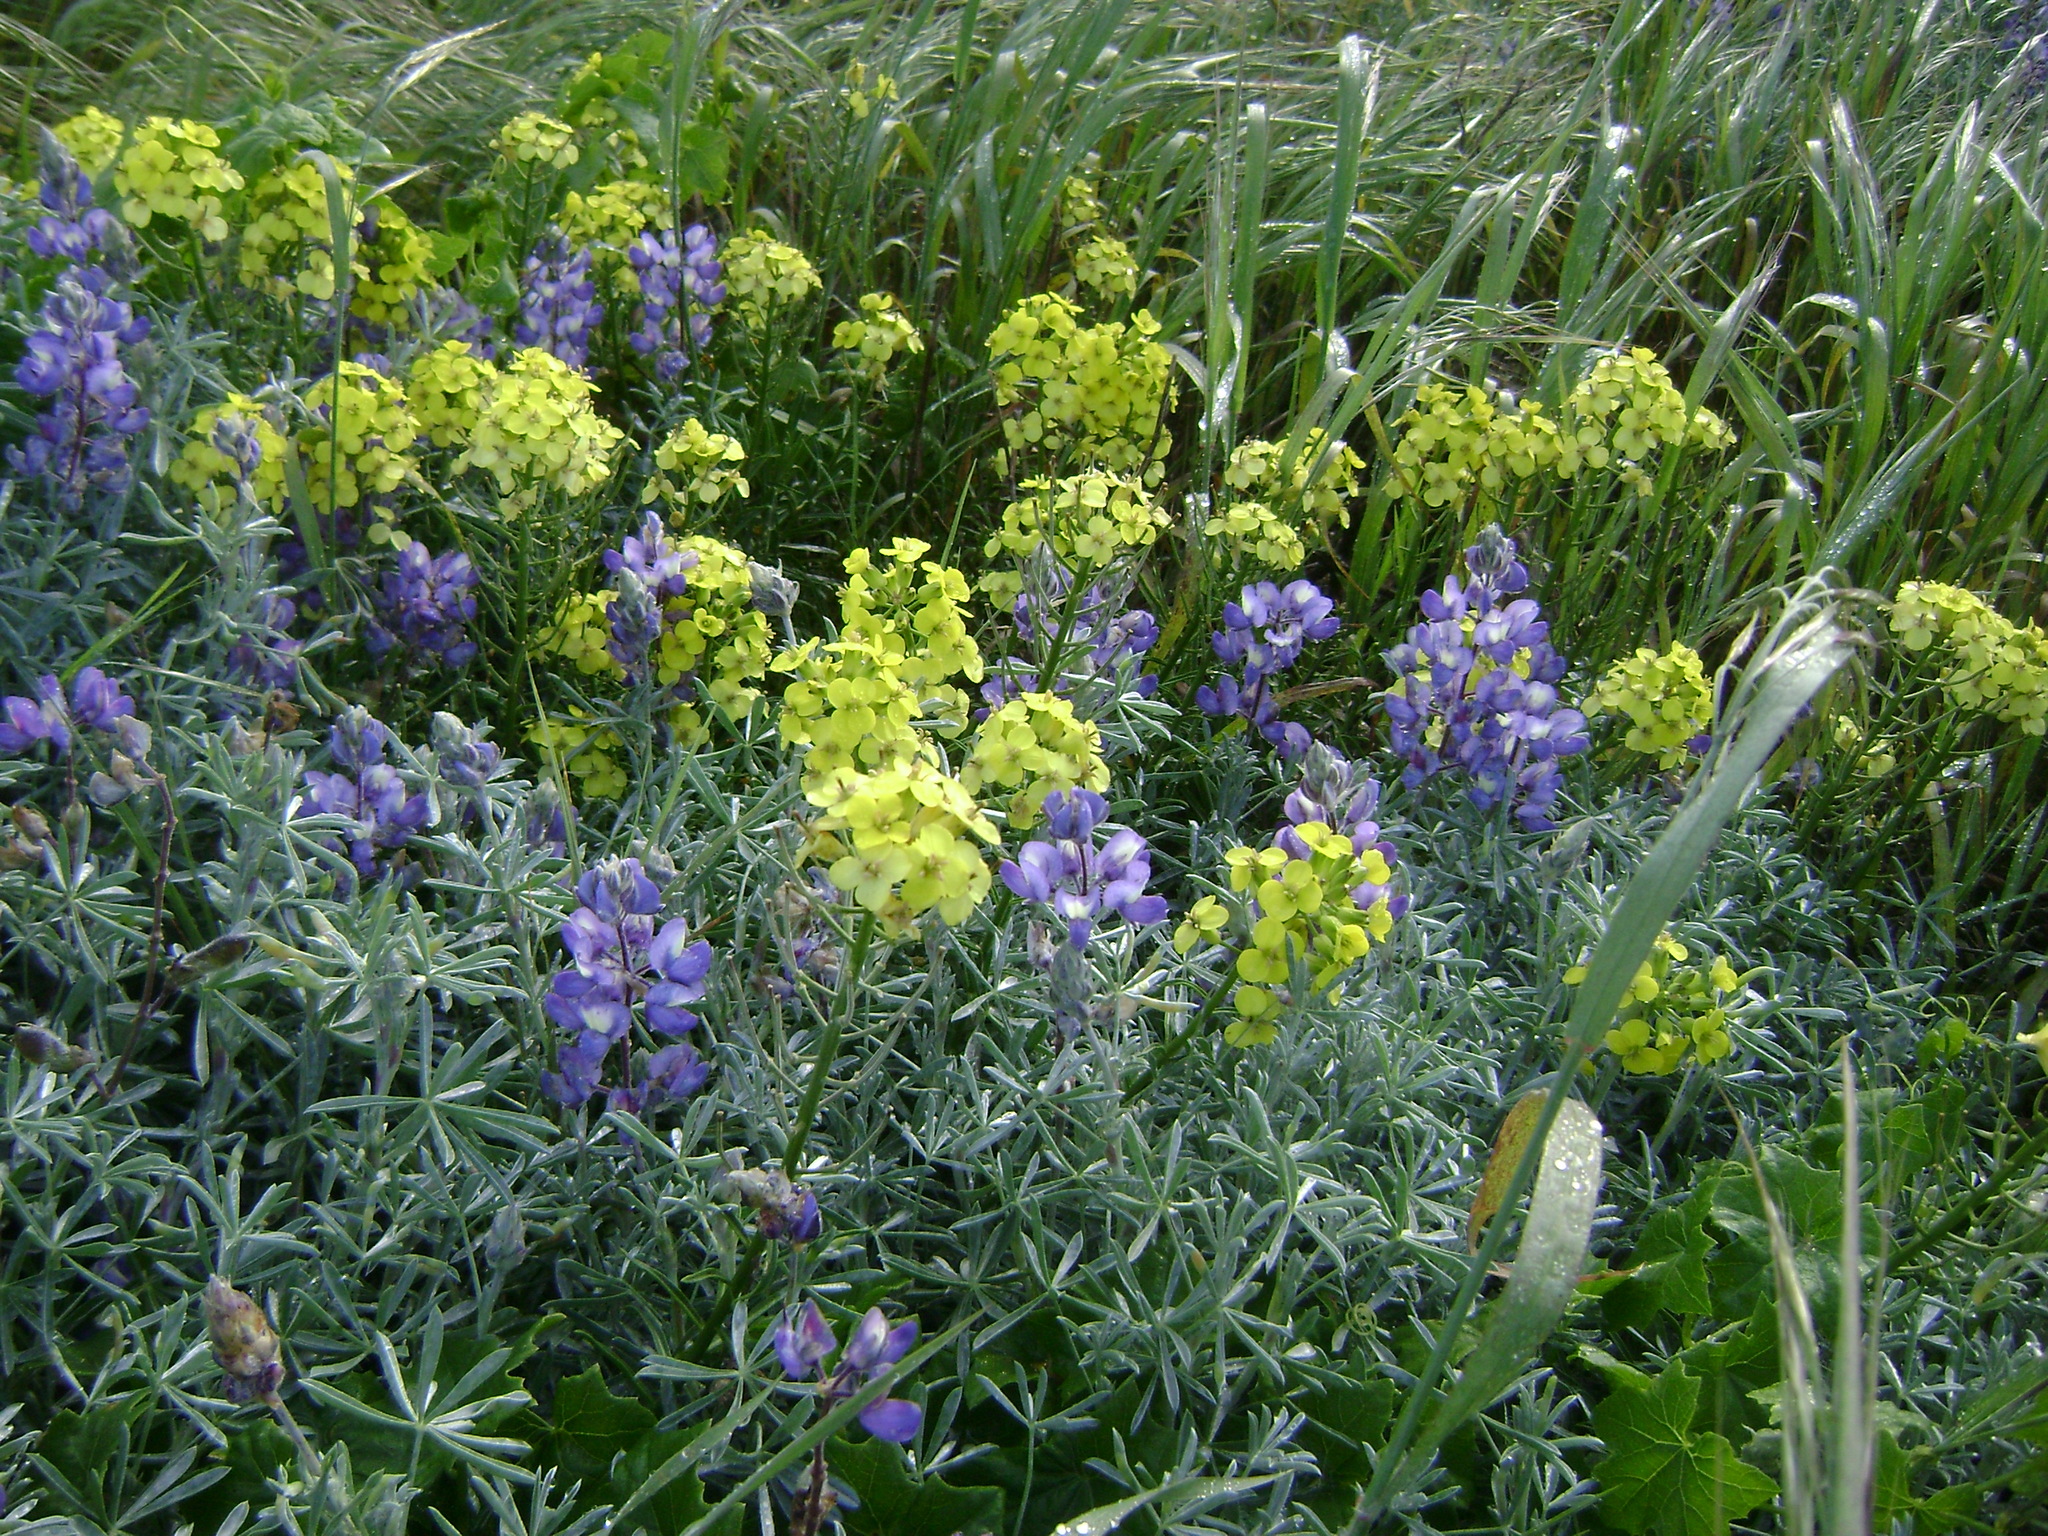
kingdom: Plantae
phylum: Tracheophyta
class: Magnoliopsida
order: Brassicales
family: Brassicaceae
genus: Erysimum
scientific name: Erysimum insulare
